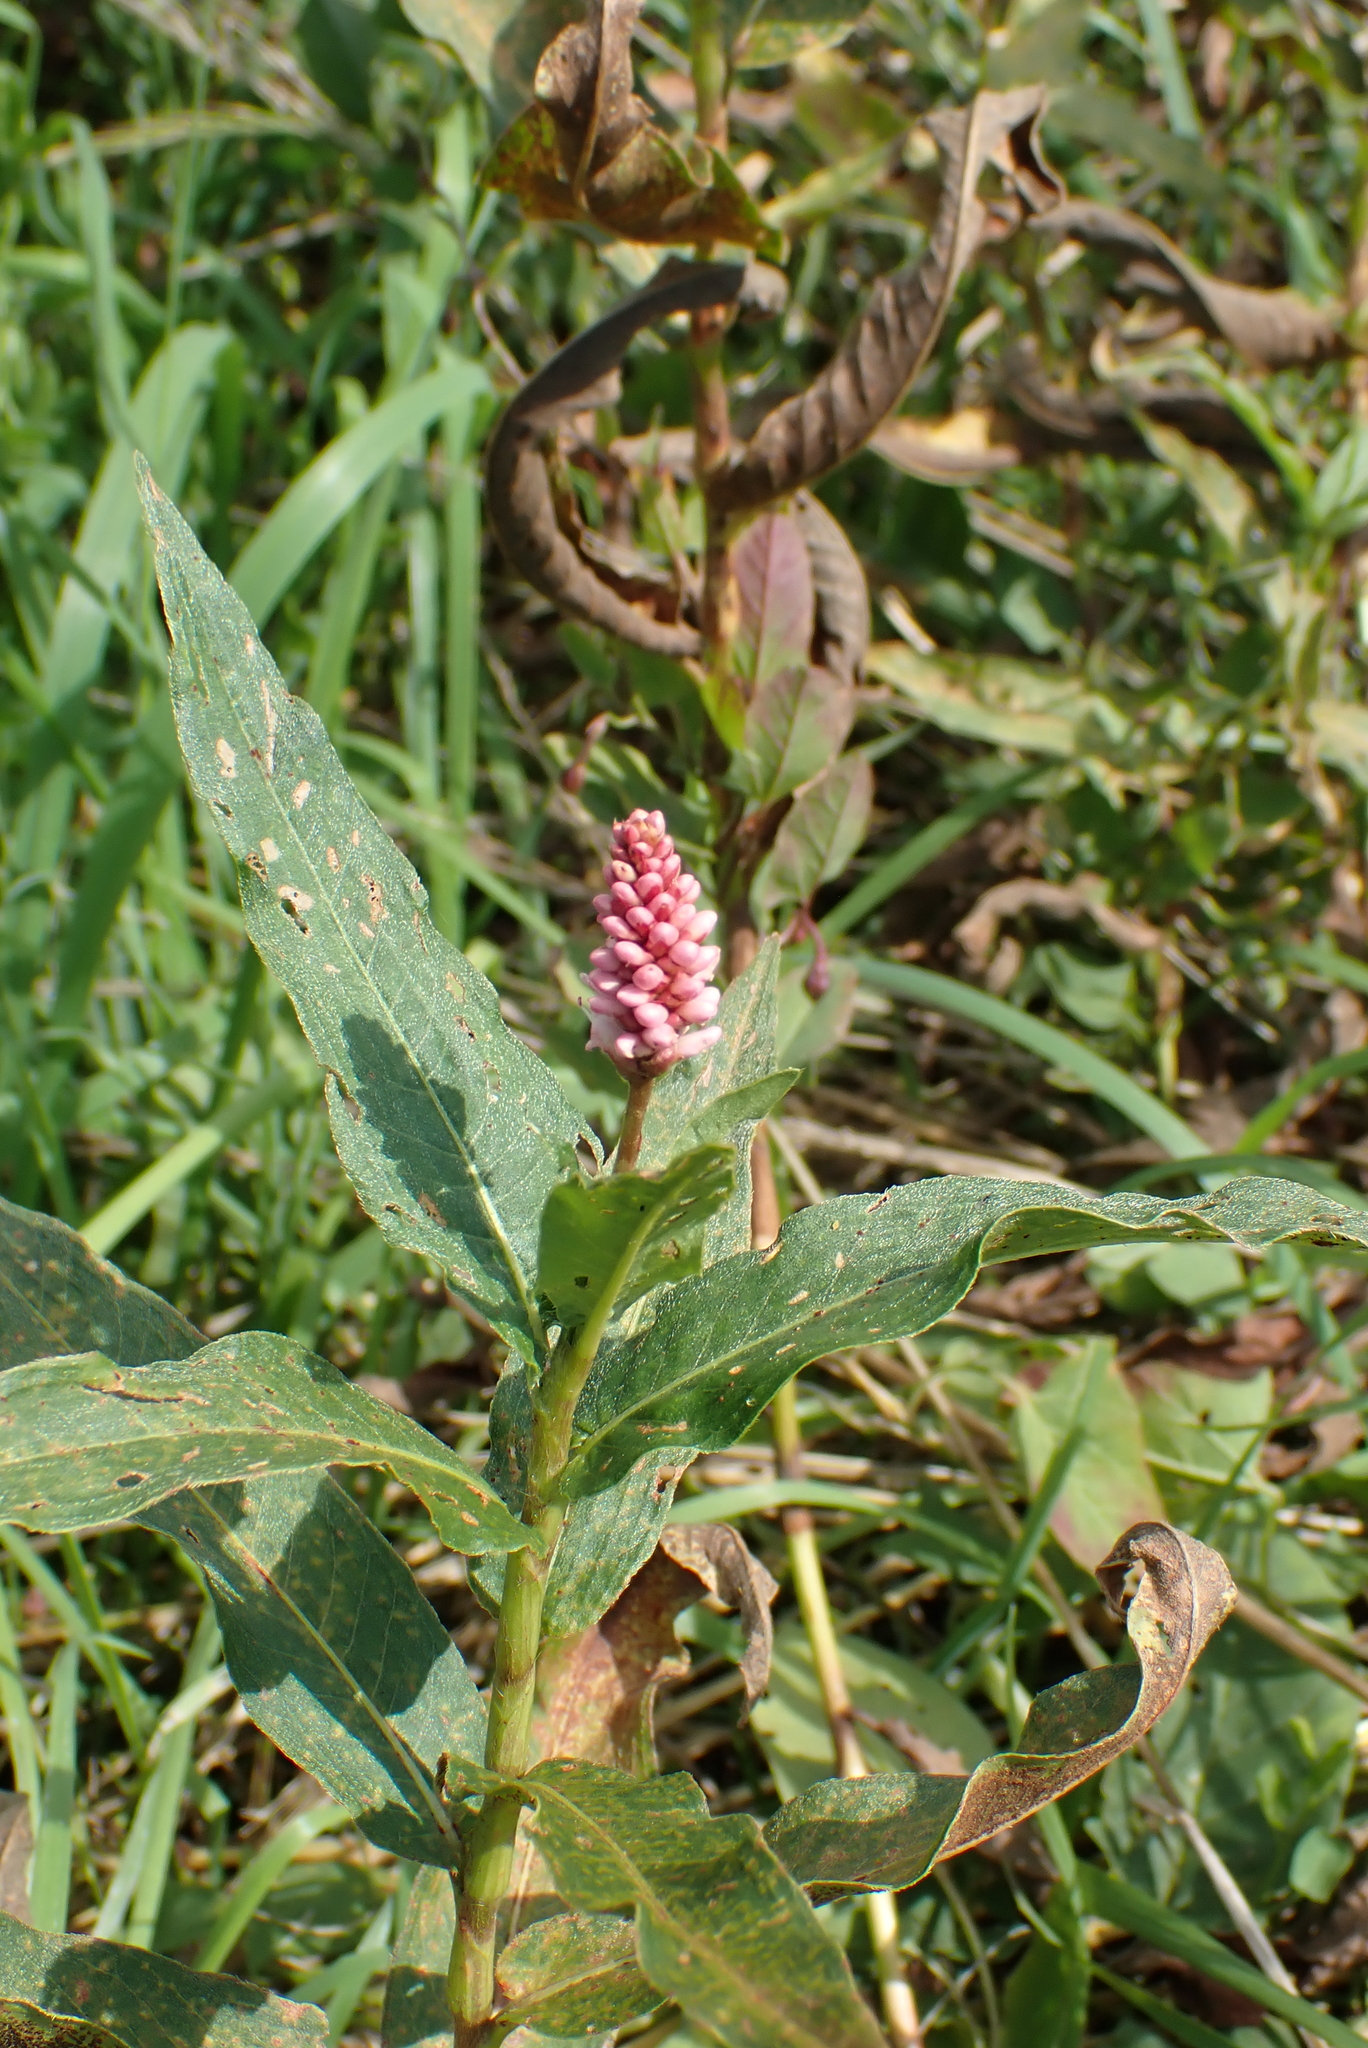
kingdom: Plantae
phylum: Tracheophyta
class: Magnoliopsida
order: Caryophyllales
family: Polygonaceae
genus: Persicaria
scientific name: Persicaria amphibia
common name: Amphibious bistort
